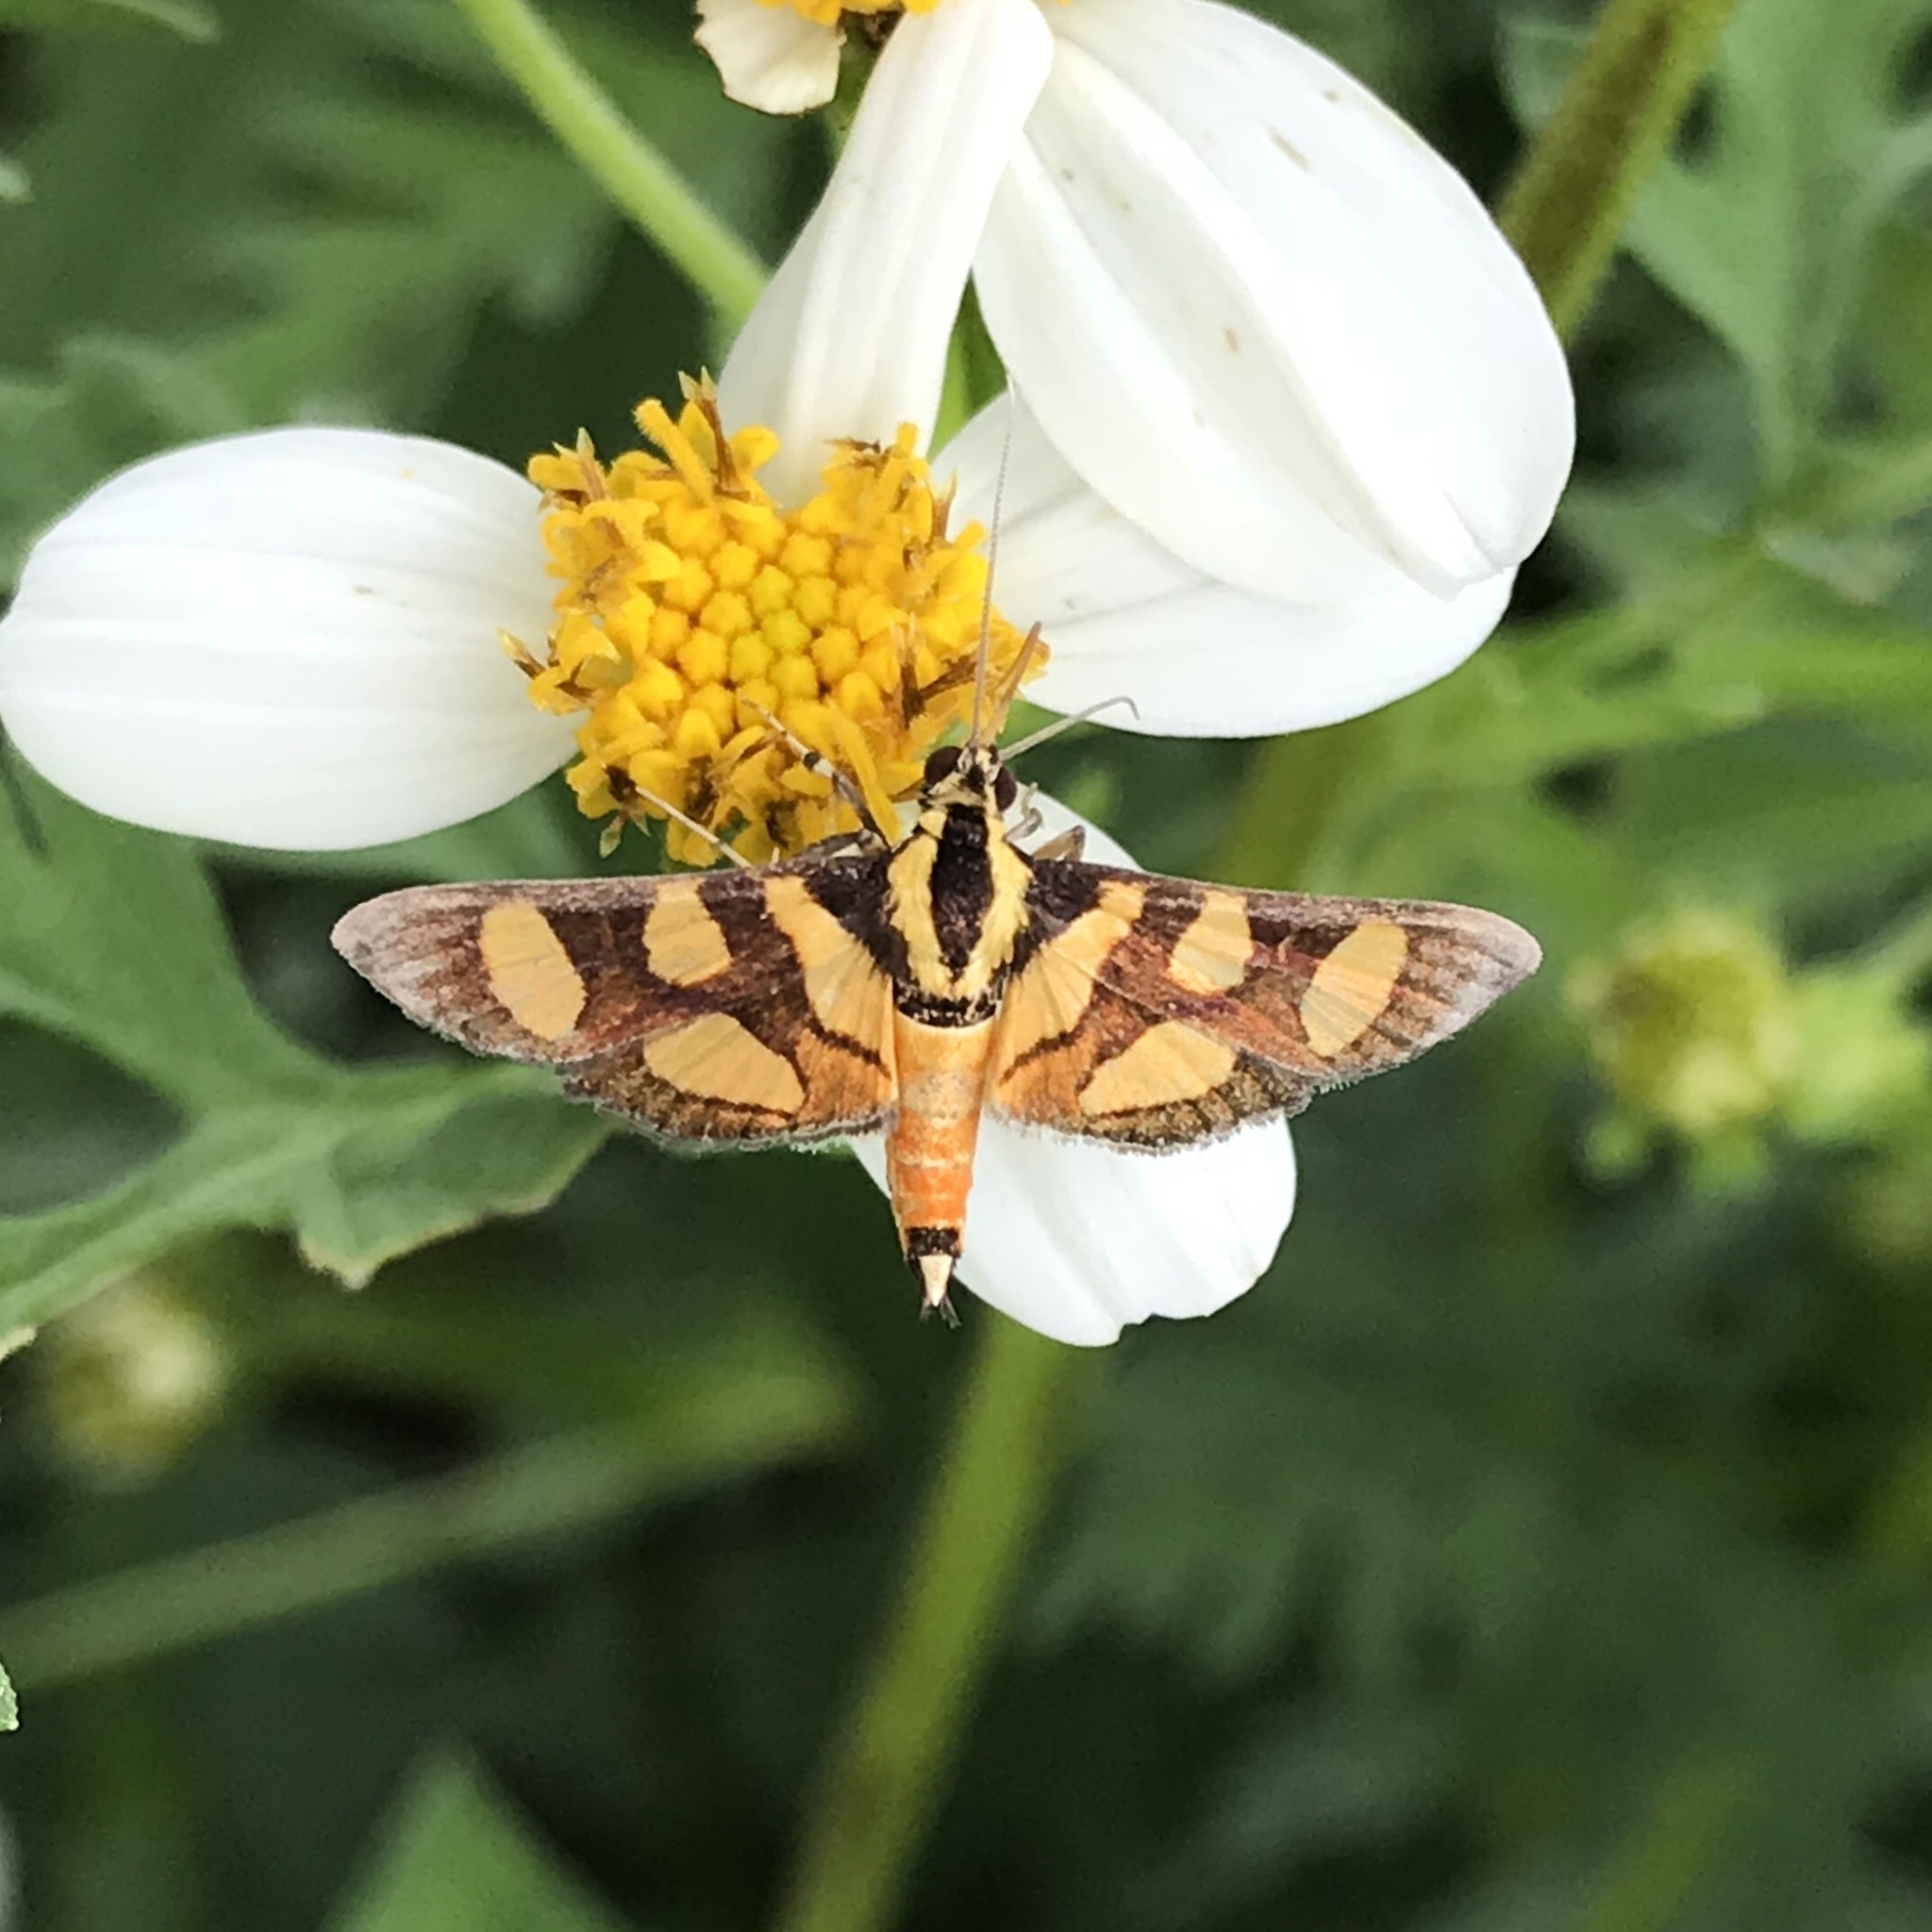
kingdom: Animalia
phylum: Arthropoda
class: Insecta
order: Lepidoptera
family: Crambidae
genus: Syngamia
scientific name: Syngamia florella
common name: Orange-spotted flower moth
